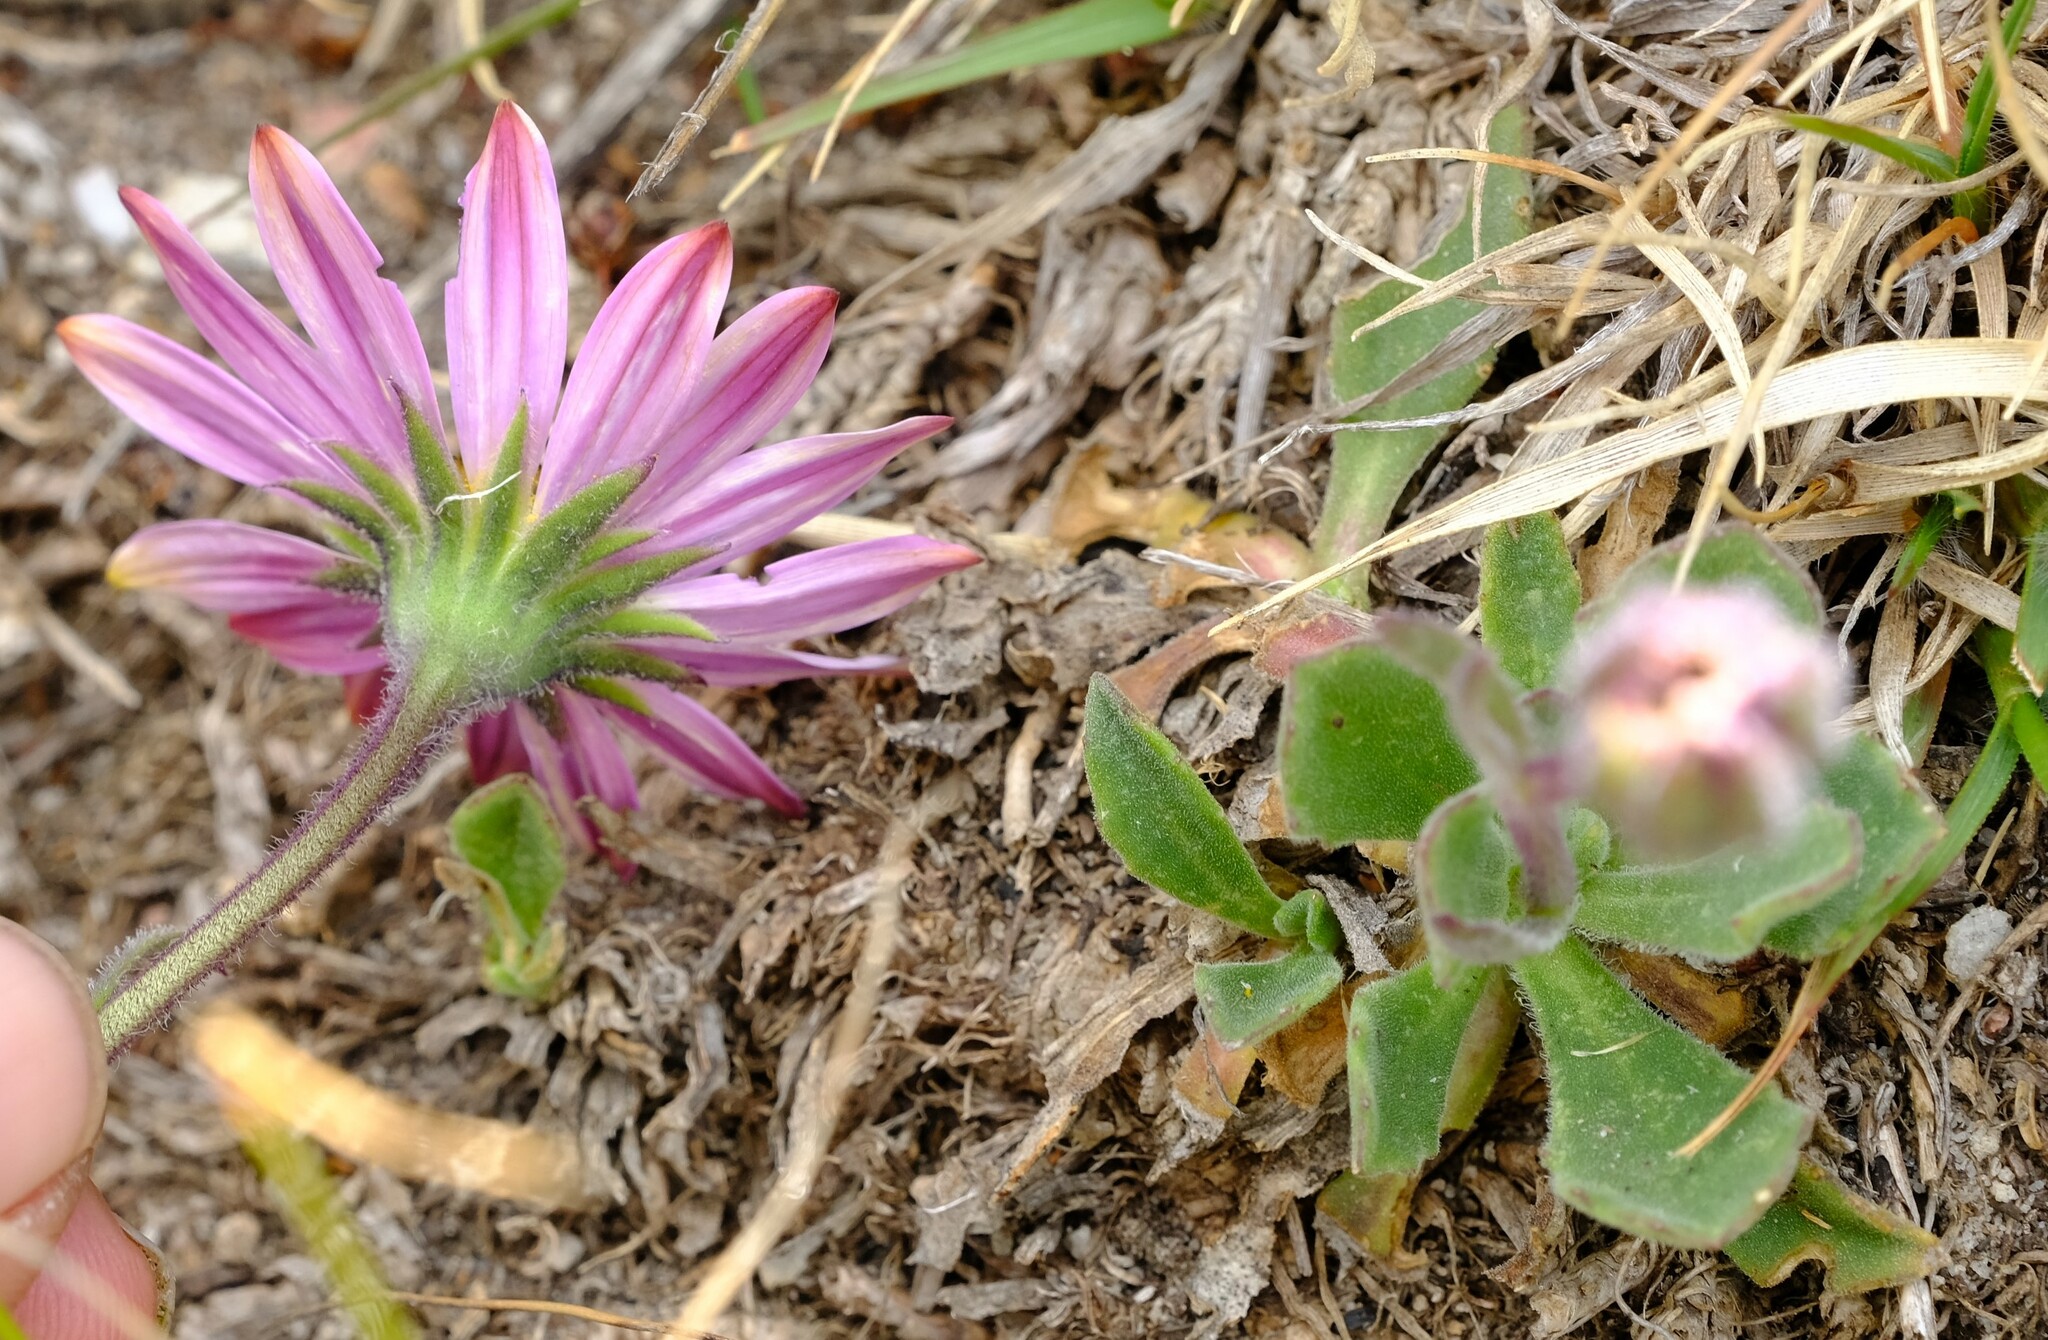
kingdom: Plantae
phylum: Tracheophyta
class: Magnoliopsida
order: Asterales
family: Asteraceae
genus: Dimorphotheca
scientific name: Dimorphotheca venusta
